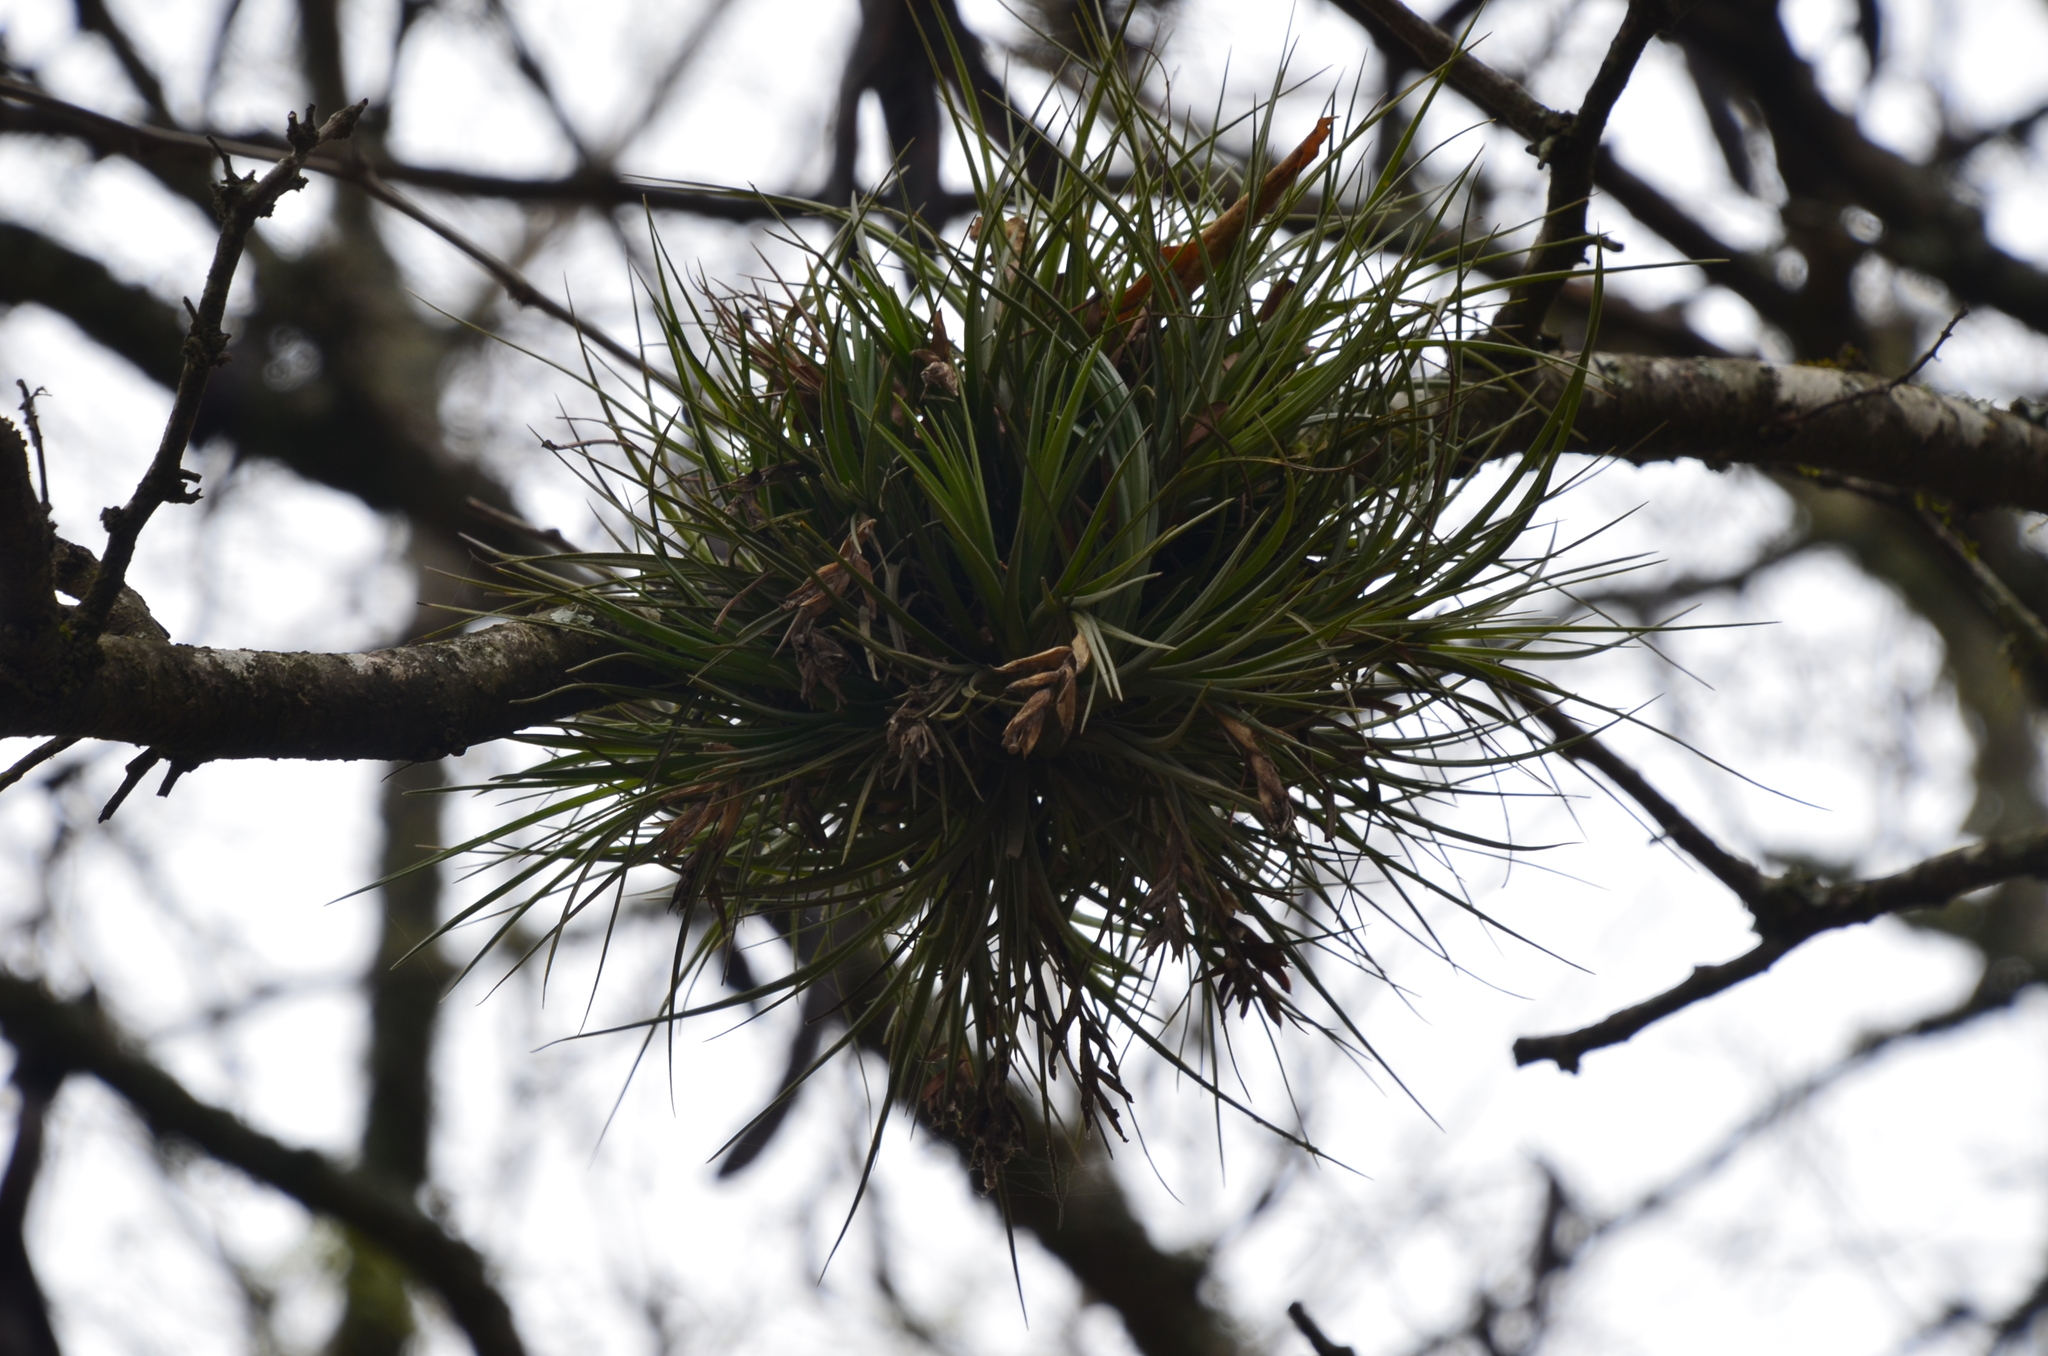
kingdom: Plantae
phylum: Tracheophyta
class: Liliopsida
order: Poales
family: Bromeliaceae
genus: Tillandsia
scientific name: Tillandsia tenuifolia
